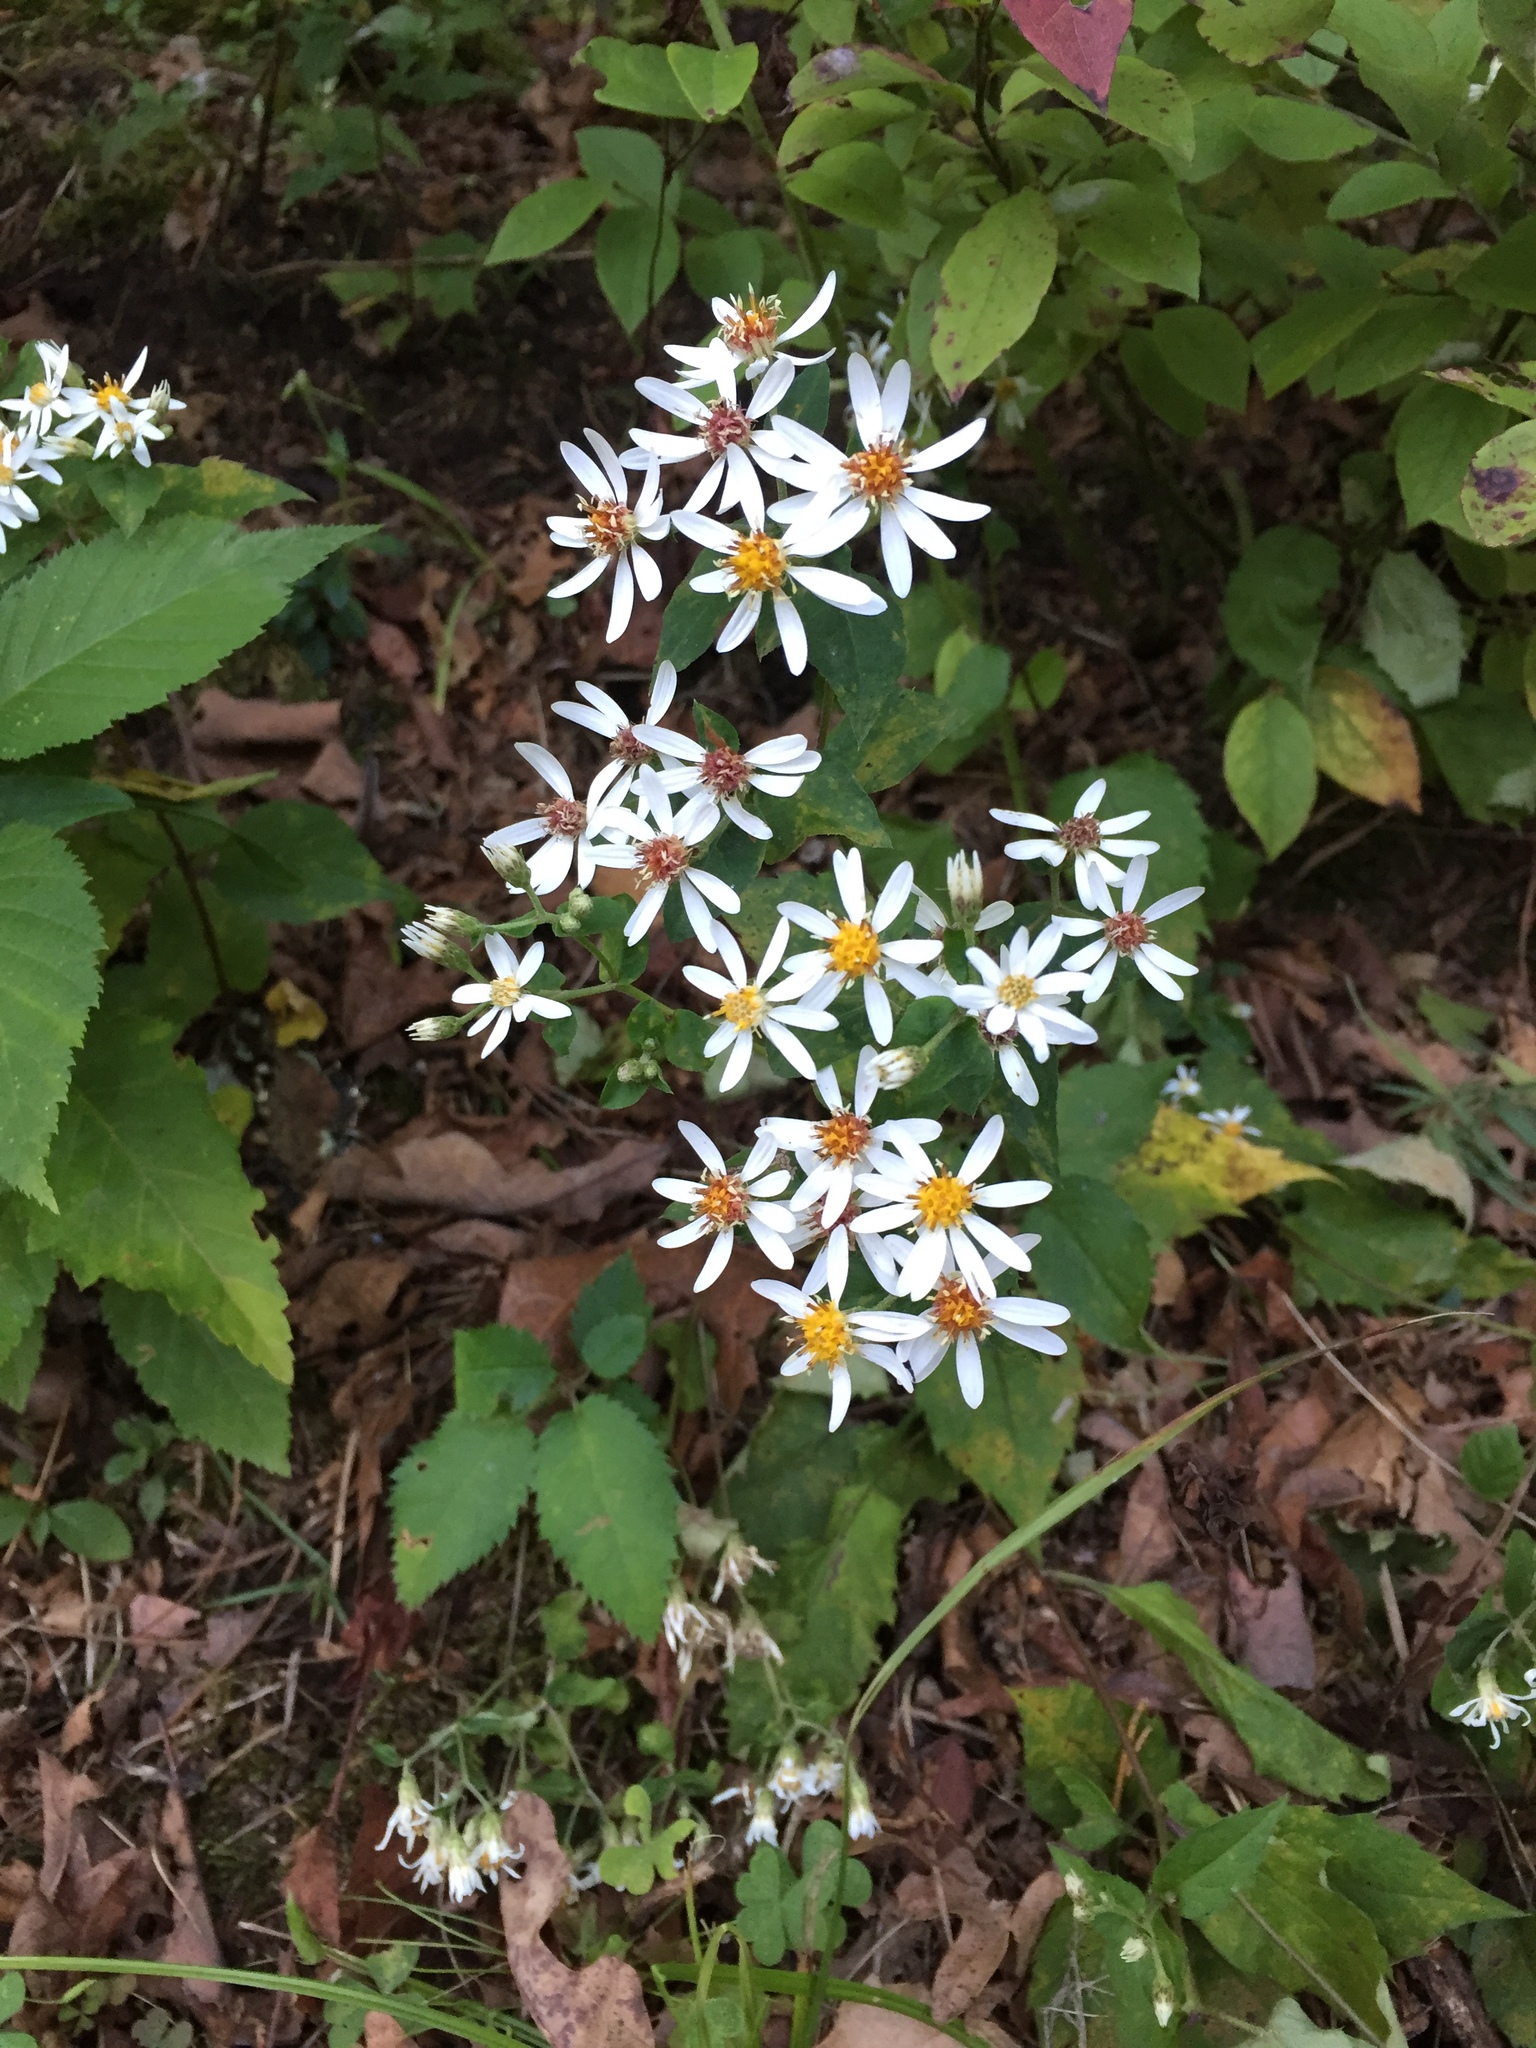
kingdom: Plantae
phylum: Tracheophyta
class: Magnoliopsida
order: Asterales
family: Asteraceae
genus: Eurybia
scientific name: Eurybia divaricata
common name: White wood aster
